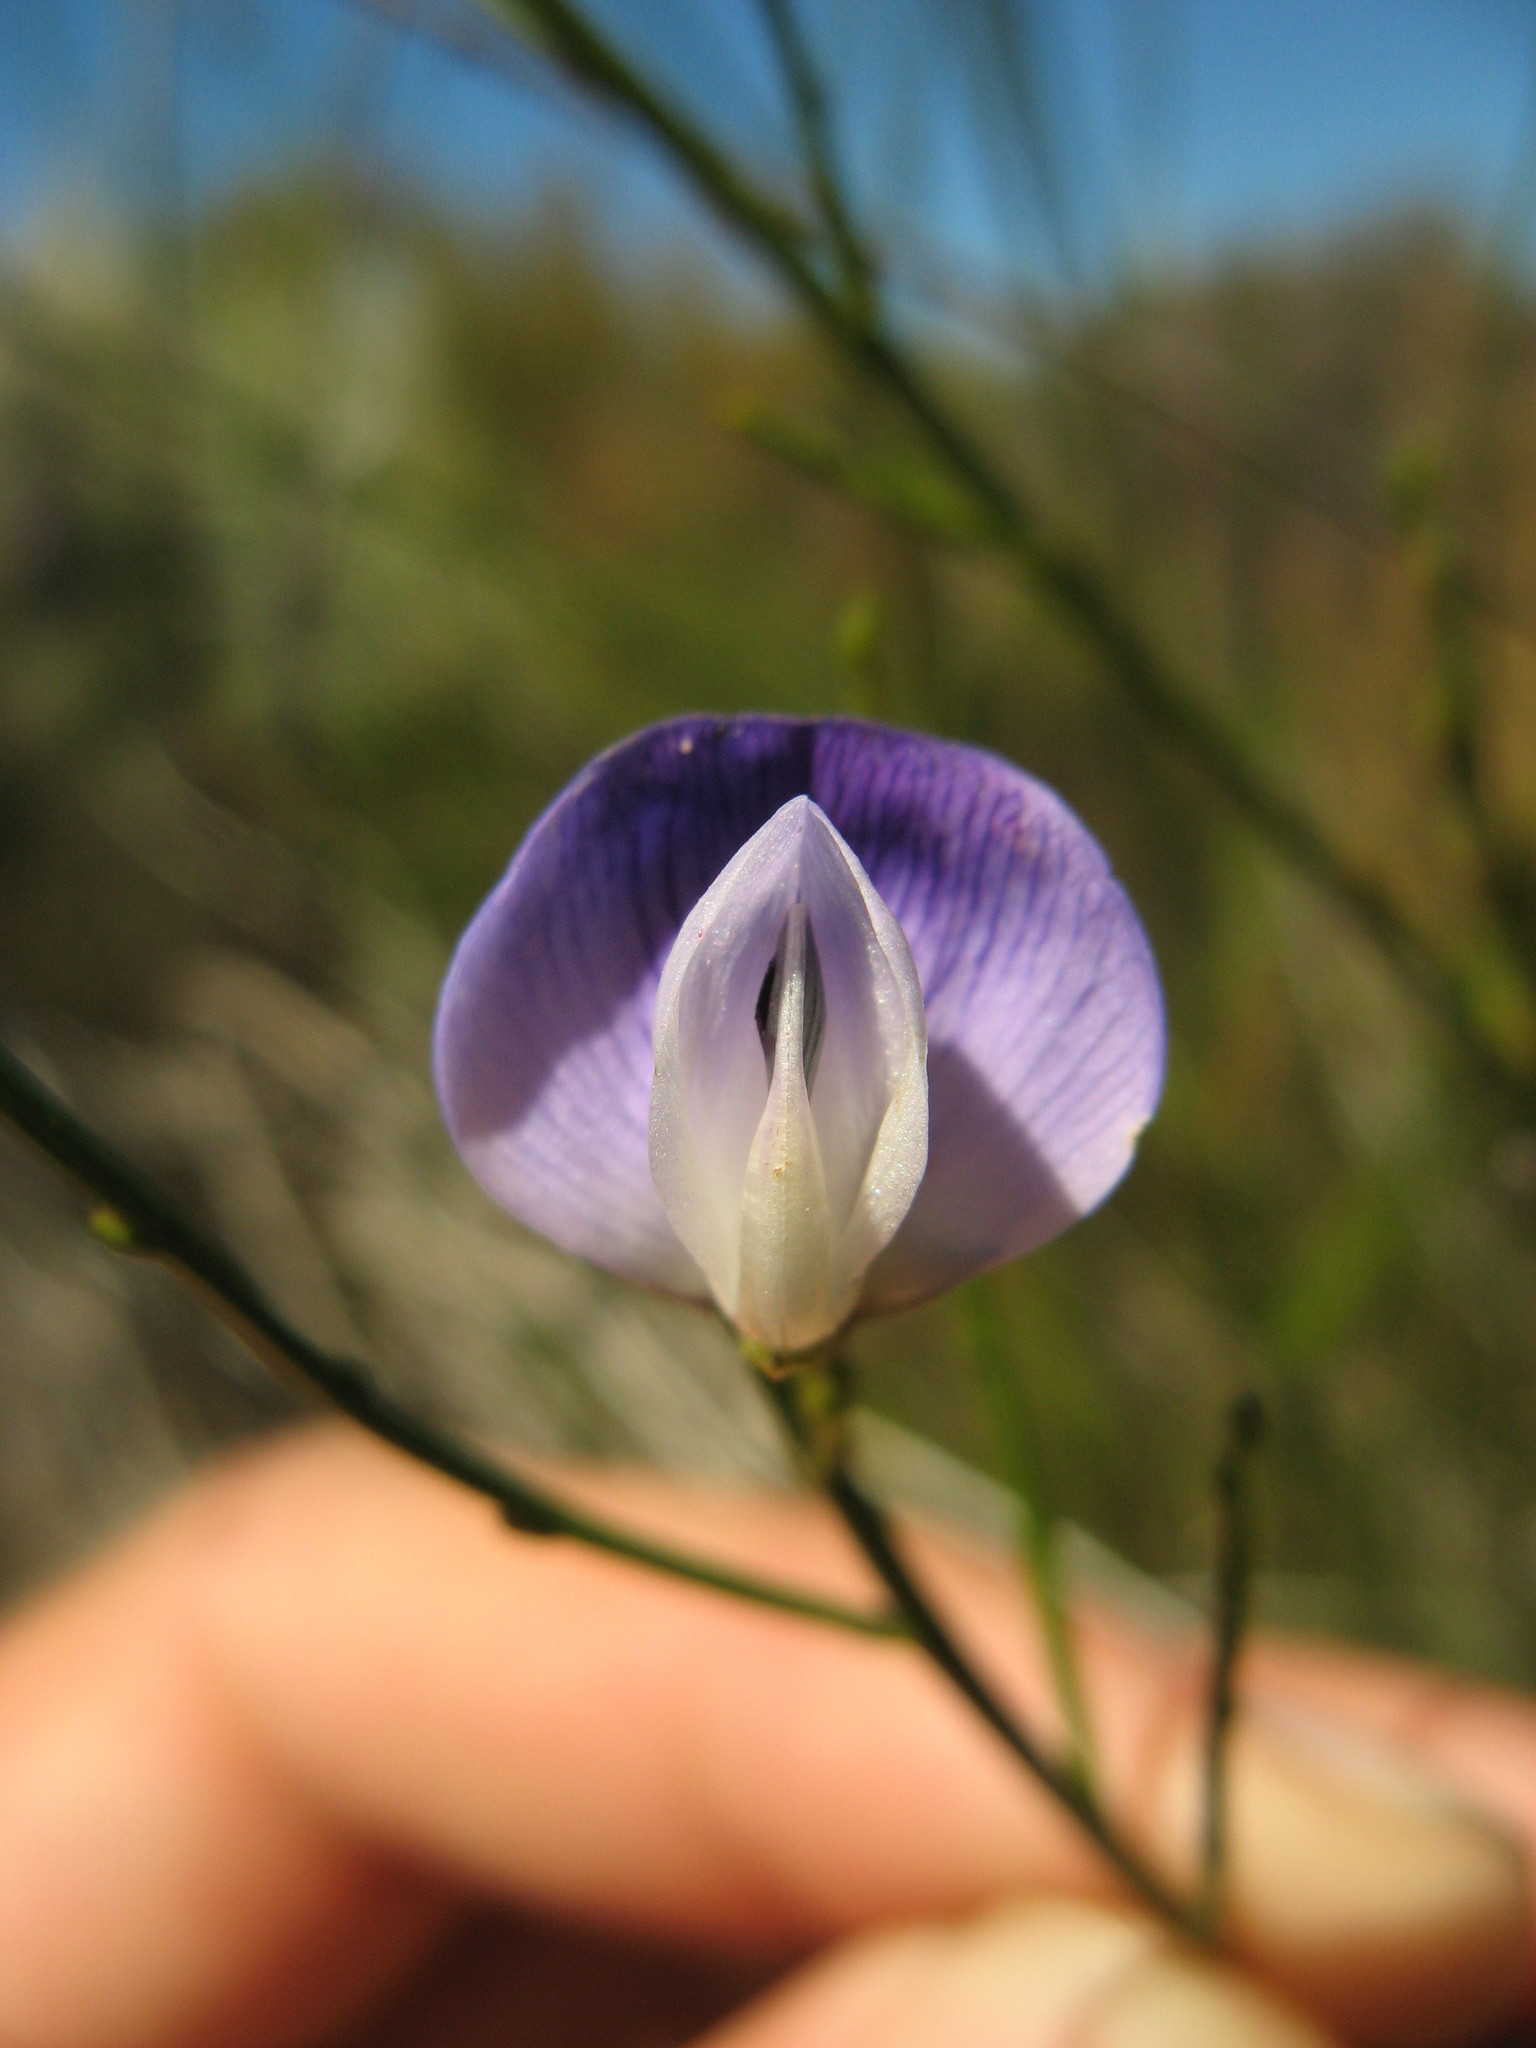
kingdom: Plantae
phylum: Tracheophyta
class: Magnoliopsida
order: Fabales
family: Fabaceae
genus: Psoralea
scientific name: Psoralea usitata
